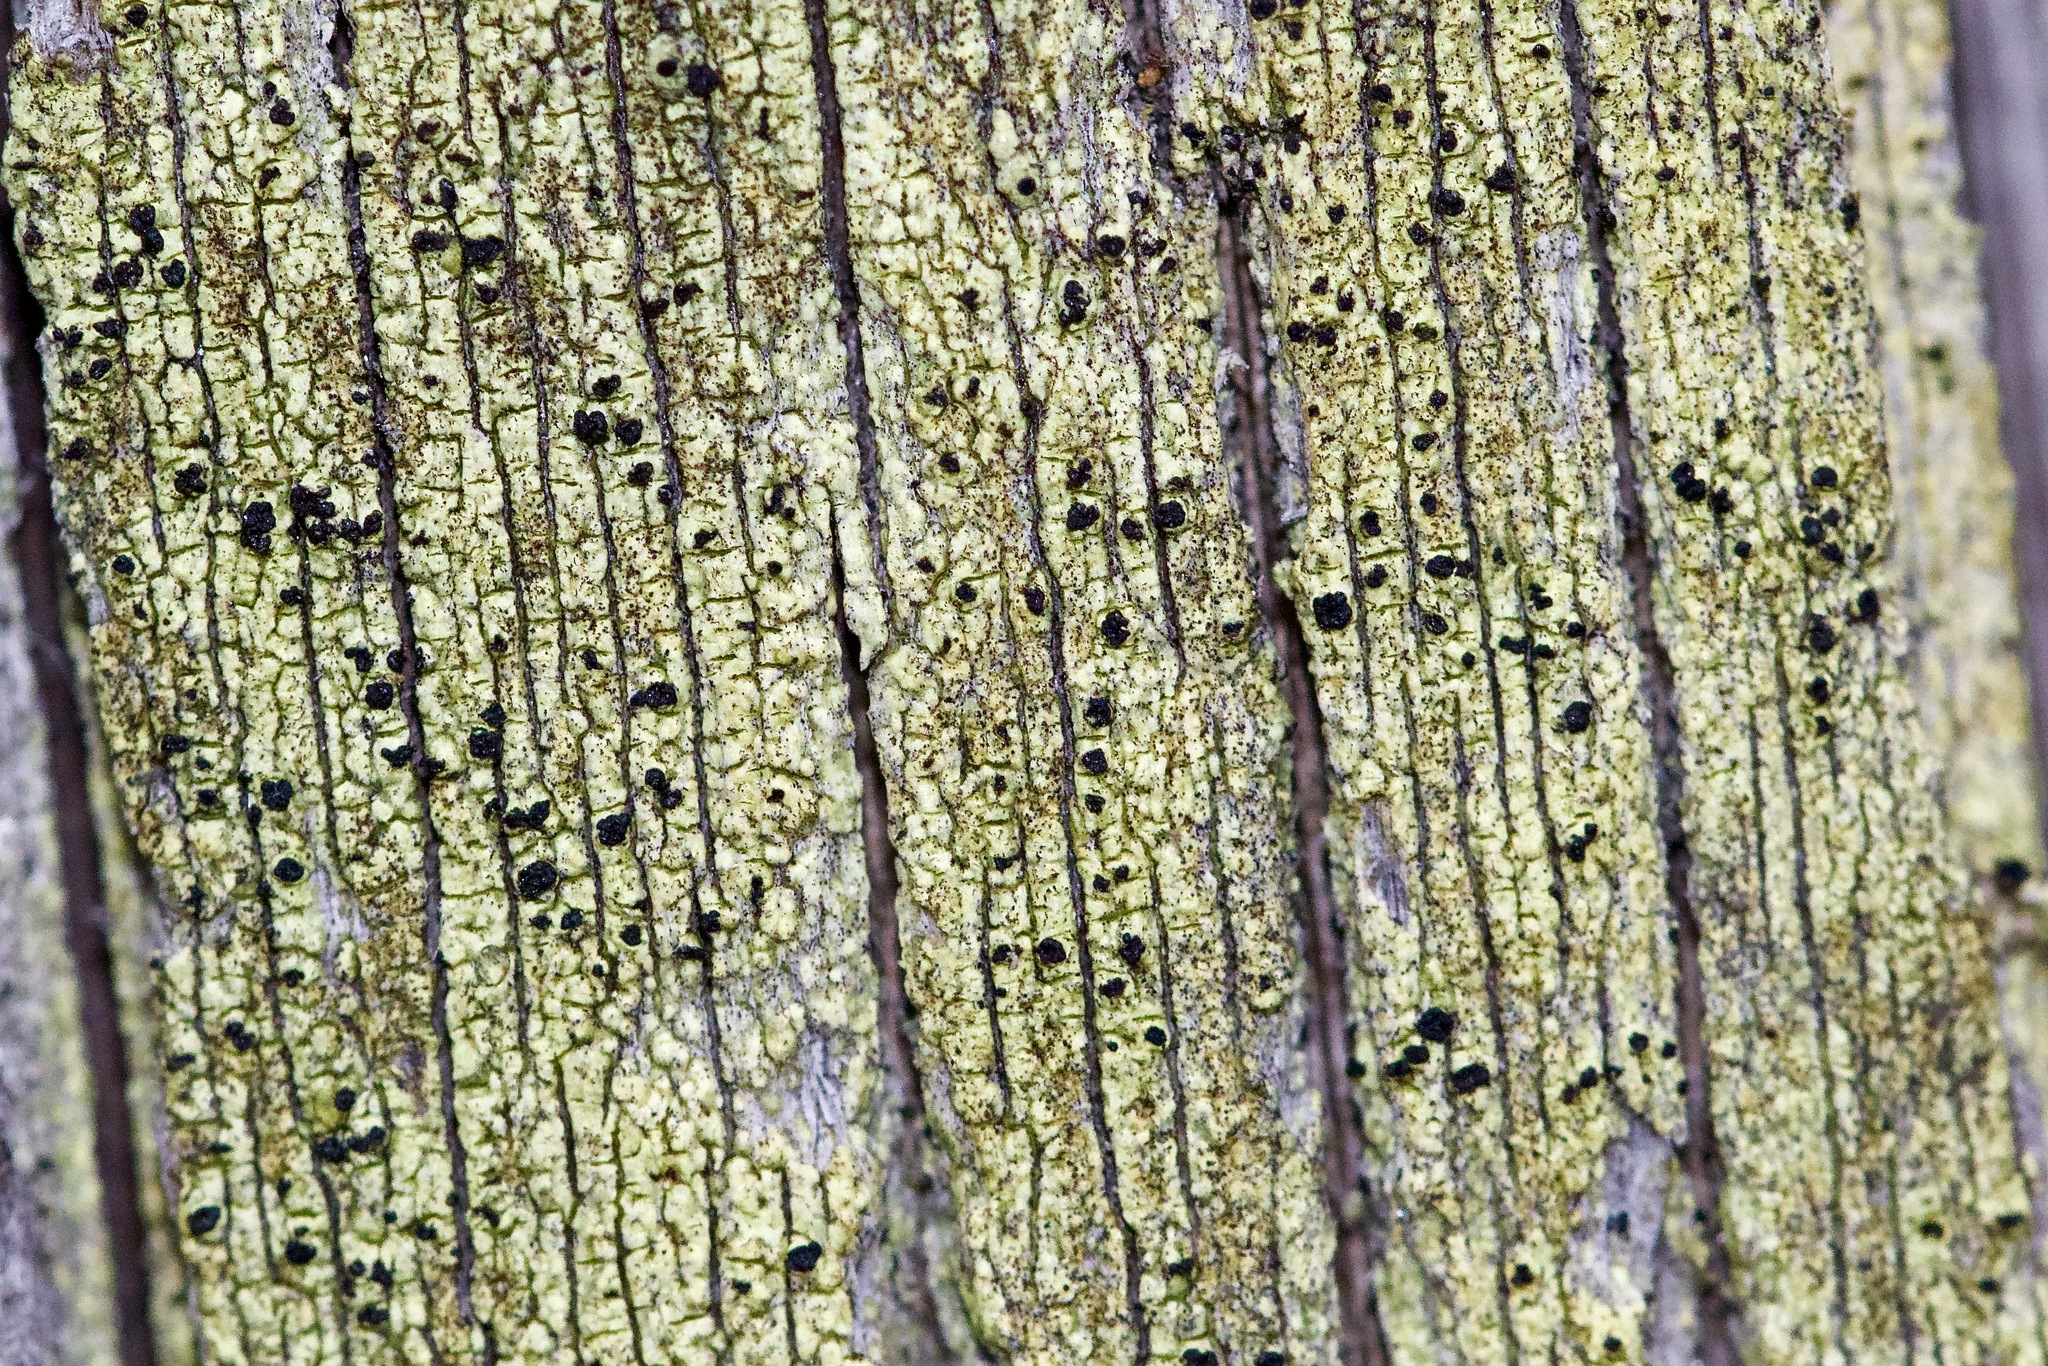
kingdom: Fungi
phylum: Ascomycota
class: Lecanoromycetes
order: Caliciales
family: Caliciaceae
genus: Calicium
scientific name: Calicium tigillare
